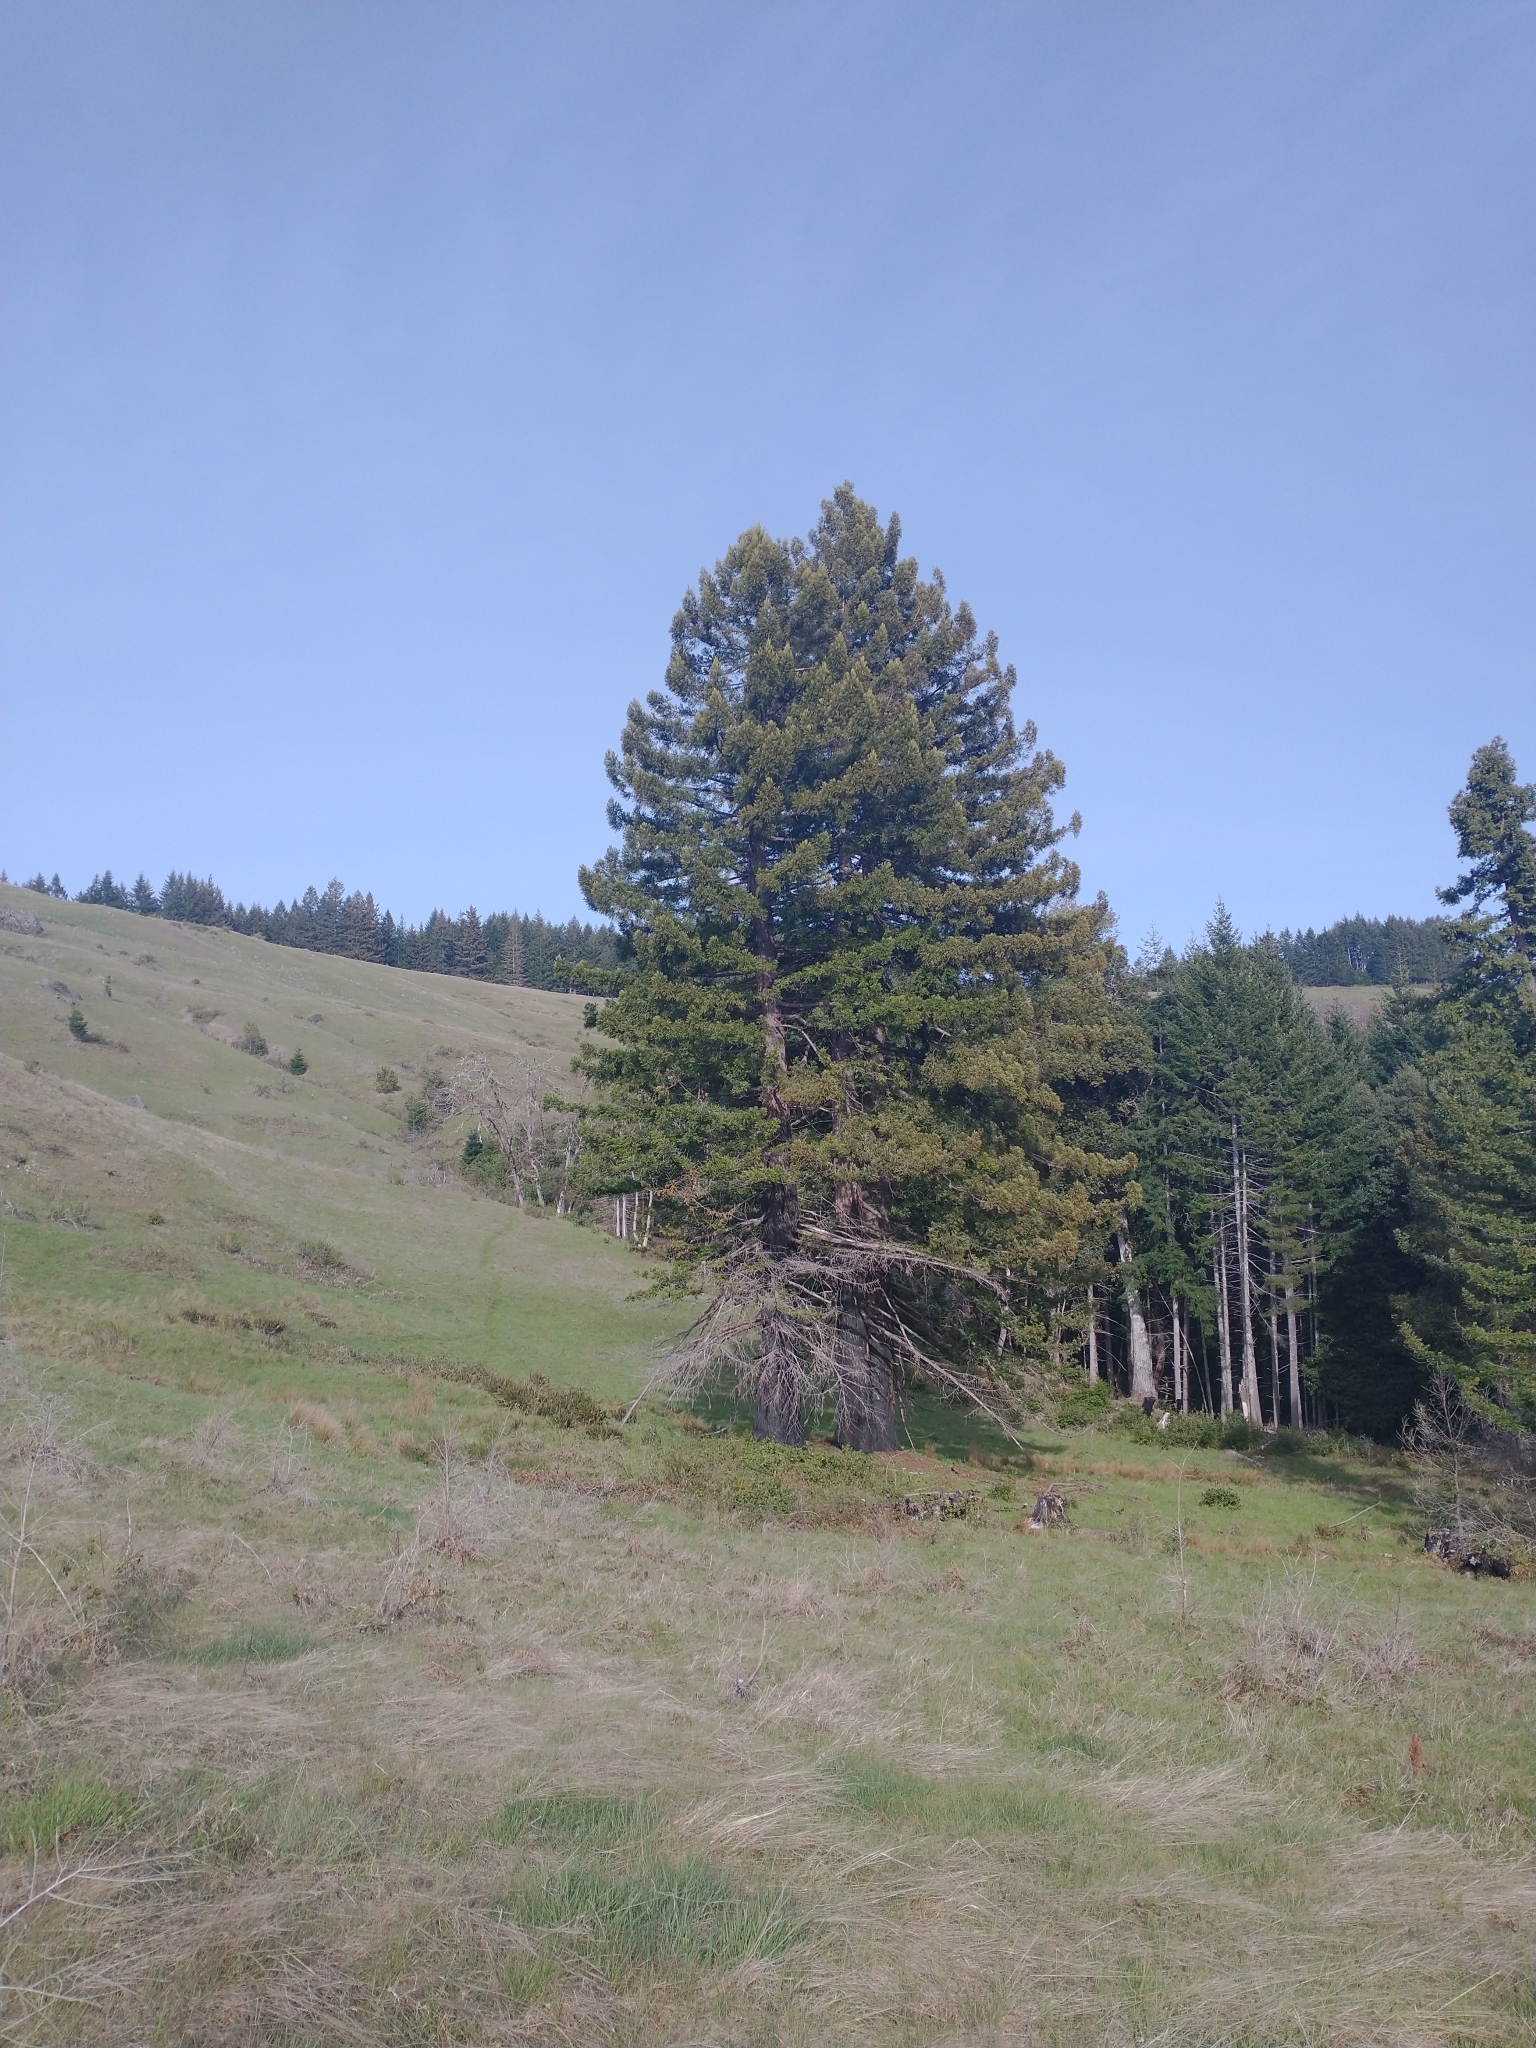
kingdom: Plantae
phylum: Tracheophyta
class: Pinopsida
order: Pinales
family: Cupressaceae
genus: Sequoia
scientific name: Sequoia sempervirens
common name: Coast redwood
